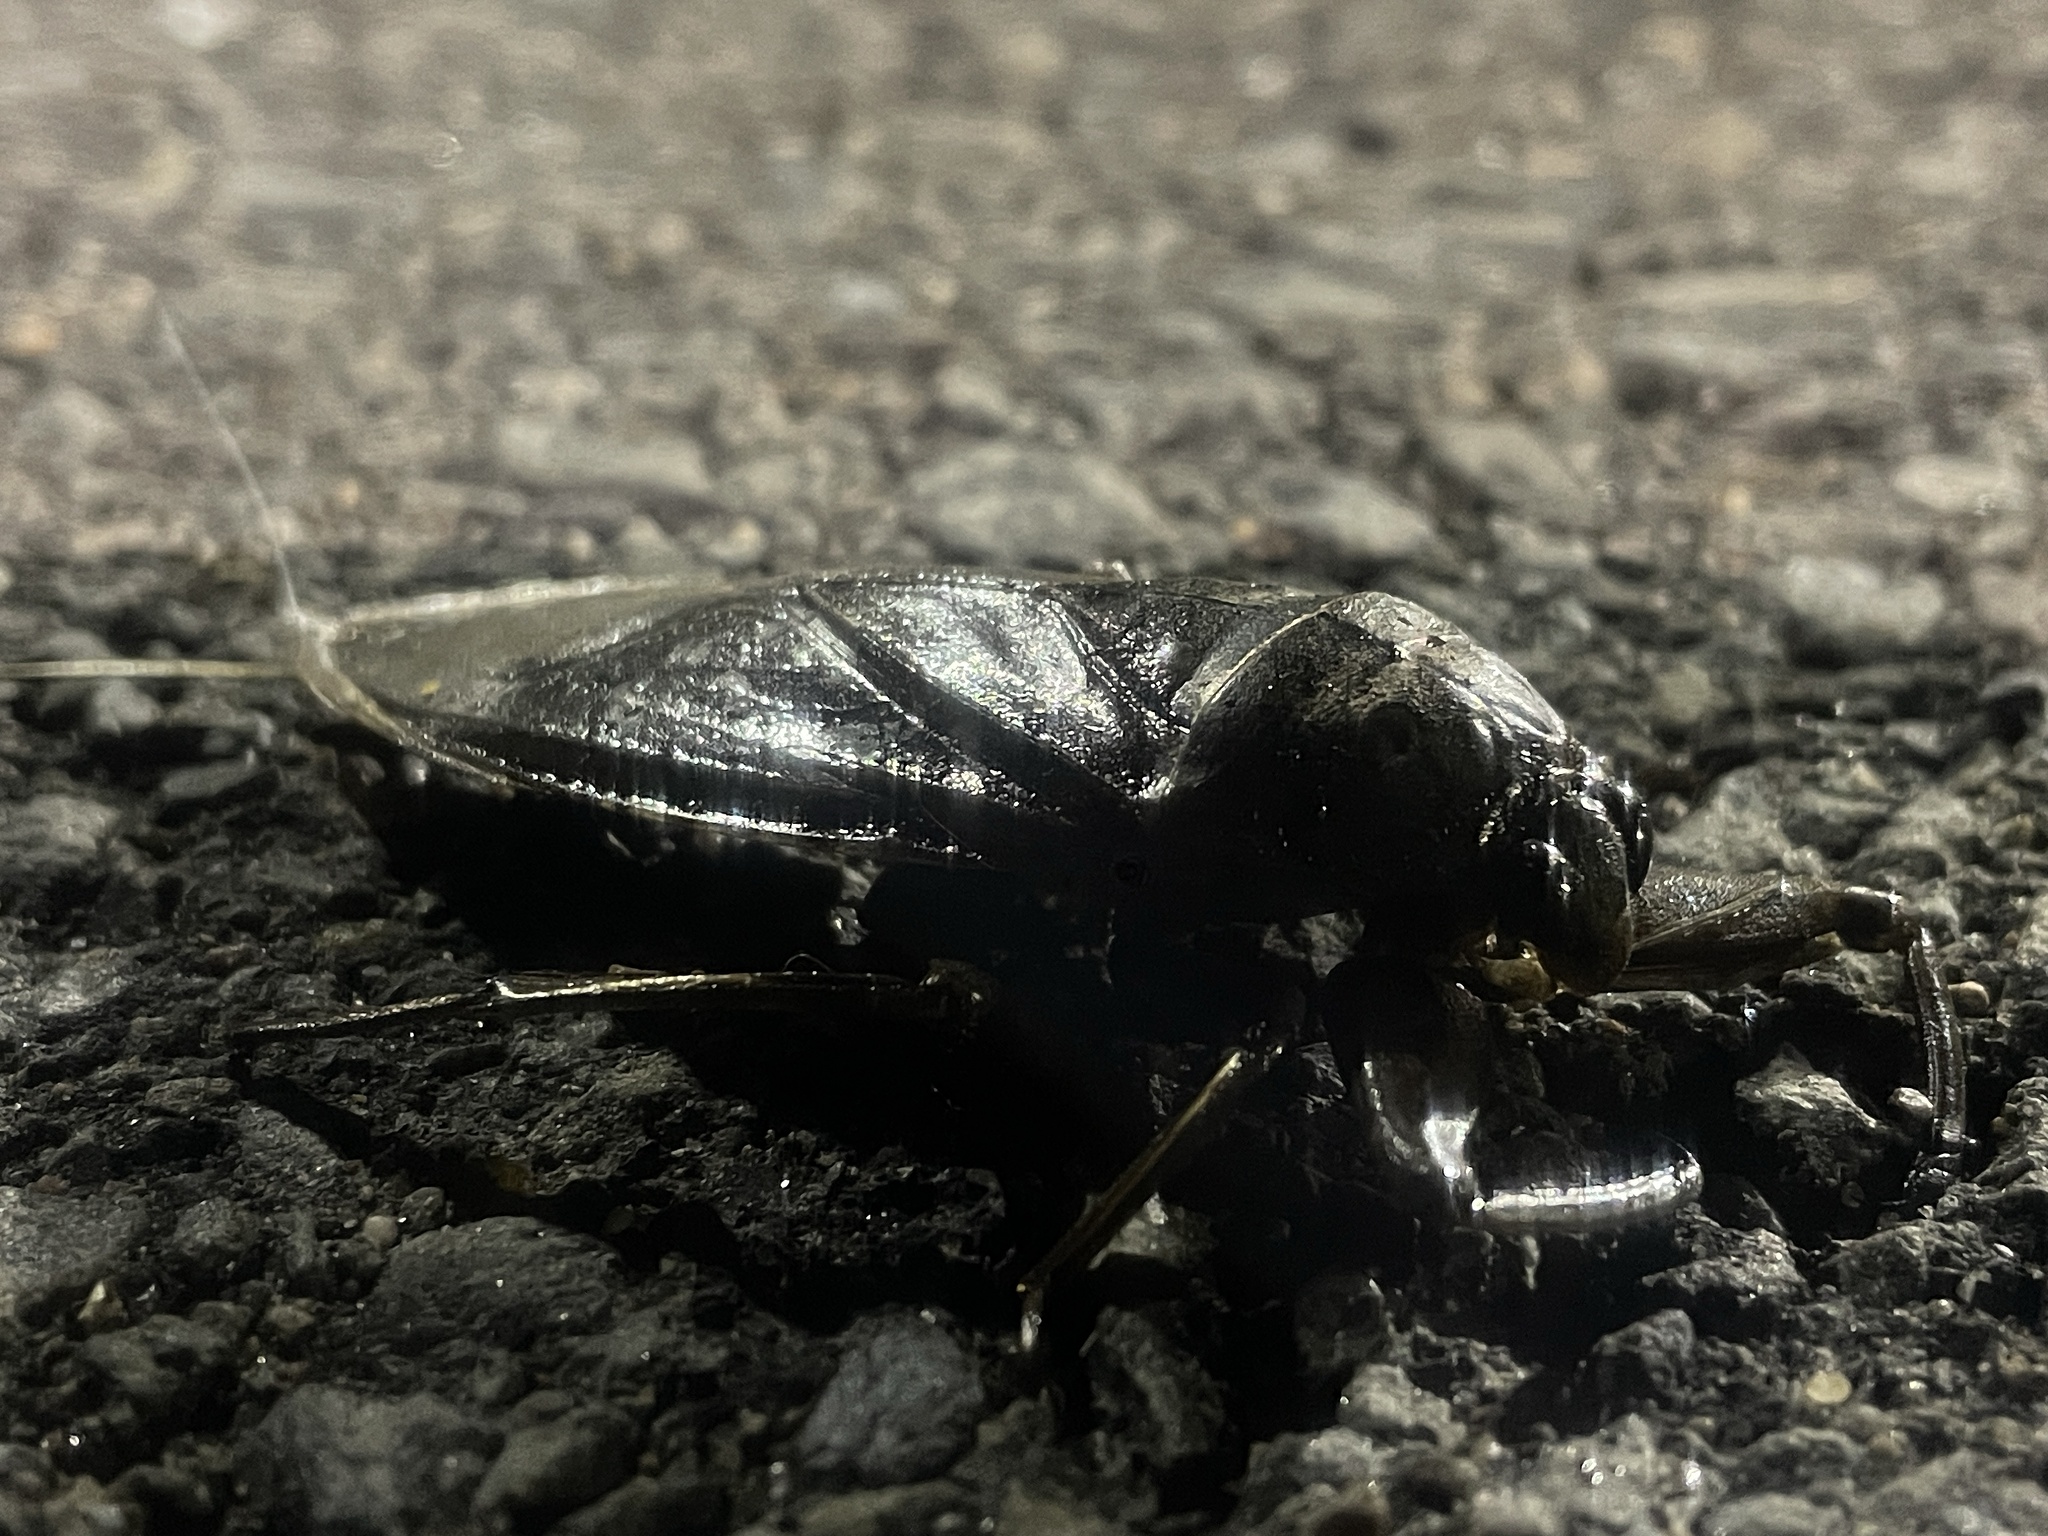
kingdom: Animalia
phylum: Arthropoda
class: Insecta
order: Hemiptera
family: Belostomatidae
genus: Lethocerus
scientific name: Lethocerus americanus
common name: Giant water bug
